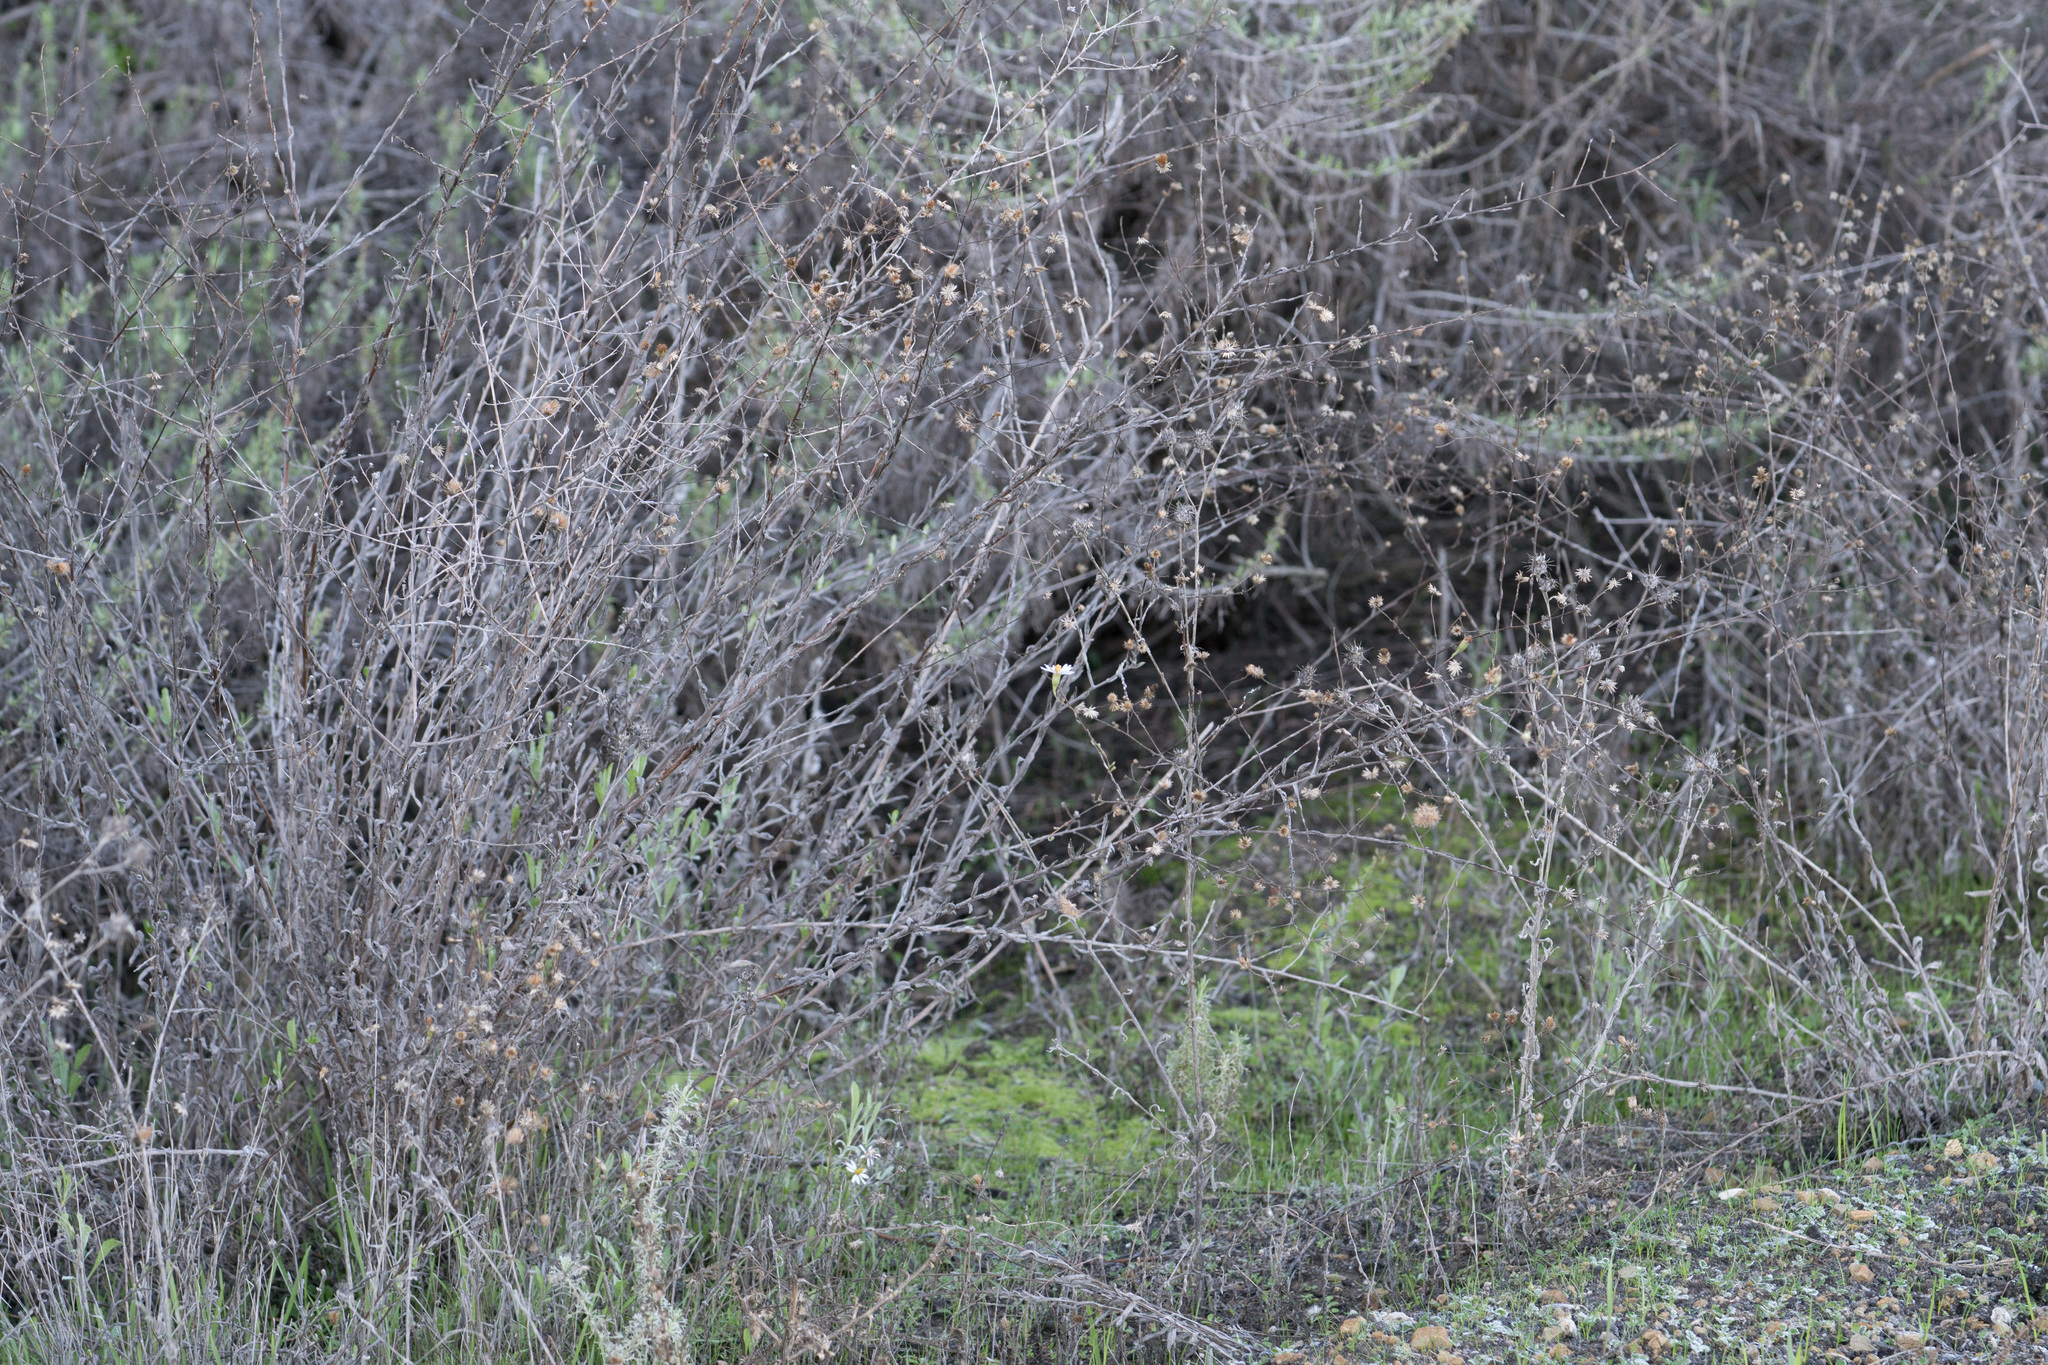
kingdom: Plantae
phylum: Tracheophyta
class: Magnoliopsida
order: Asterales
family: Asteraceae
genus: Corethrogyne
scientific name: Corethrogyne filaginifolia
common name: Sand-aster
